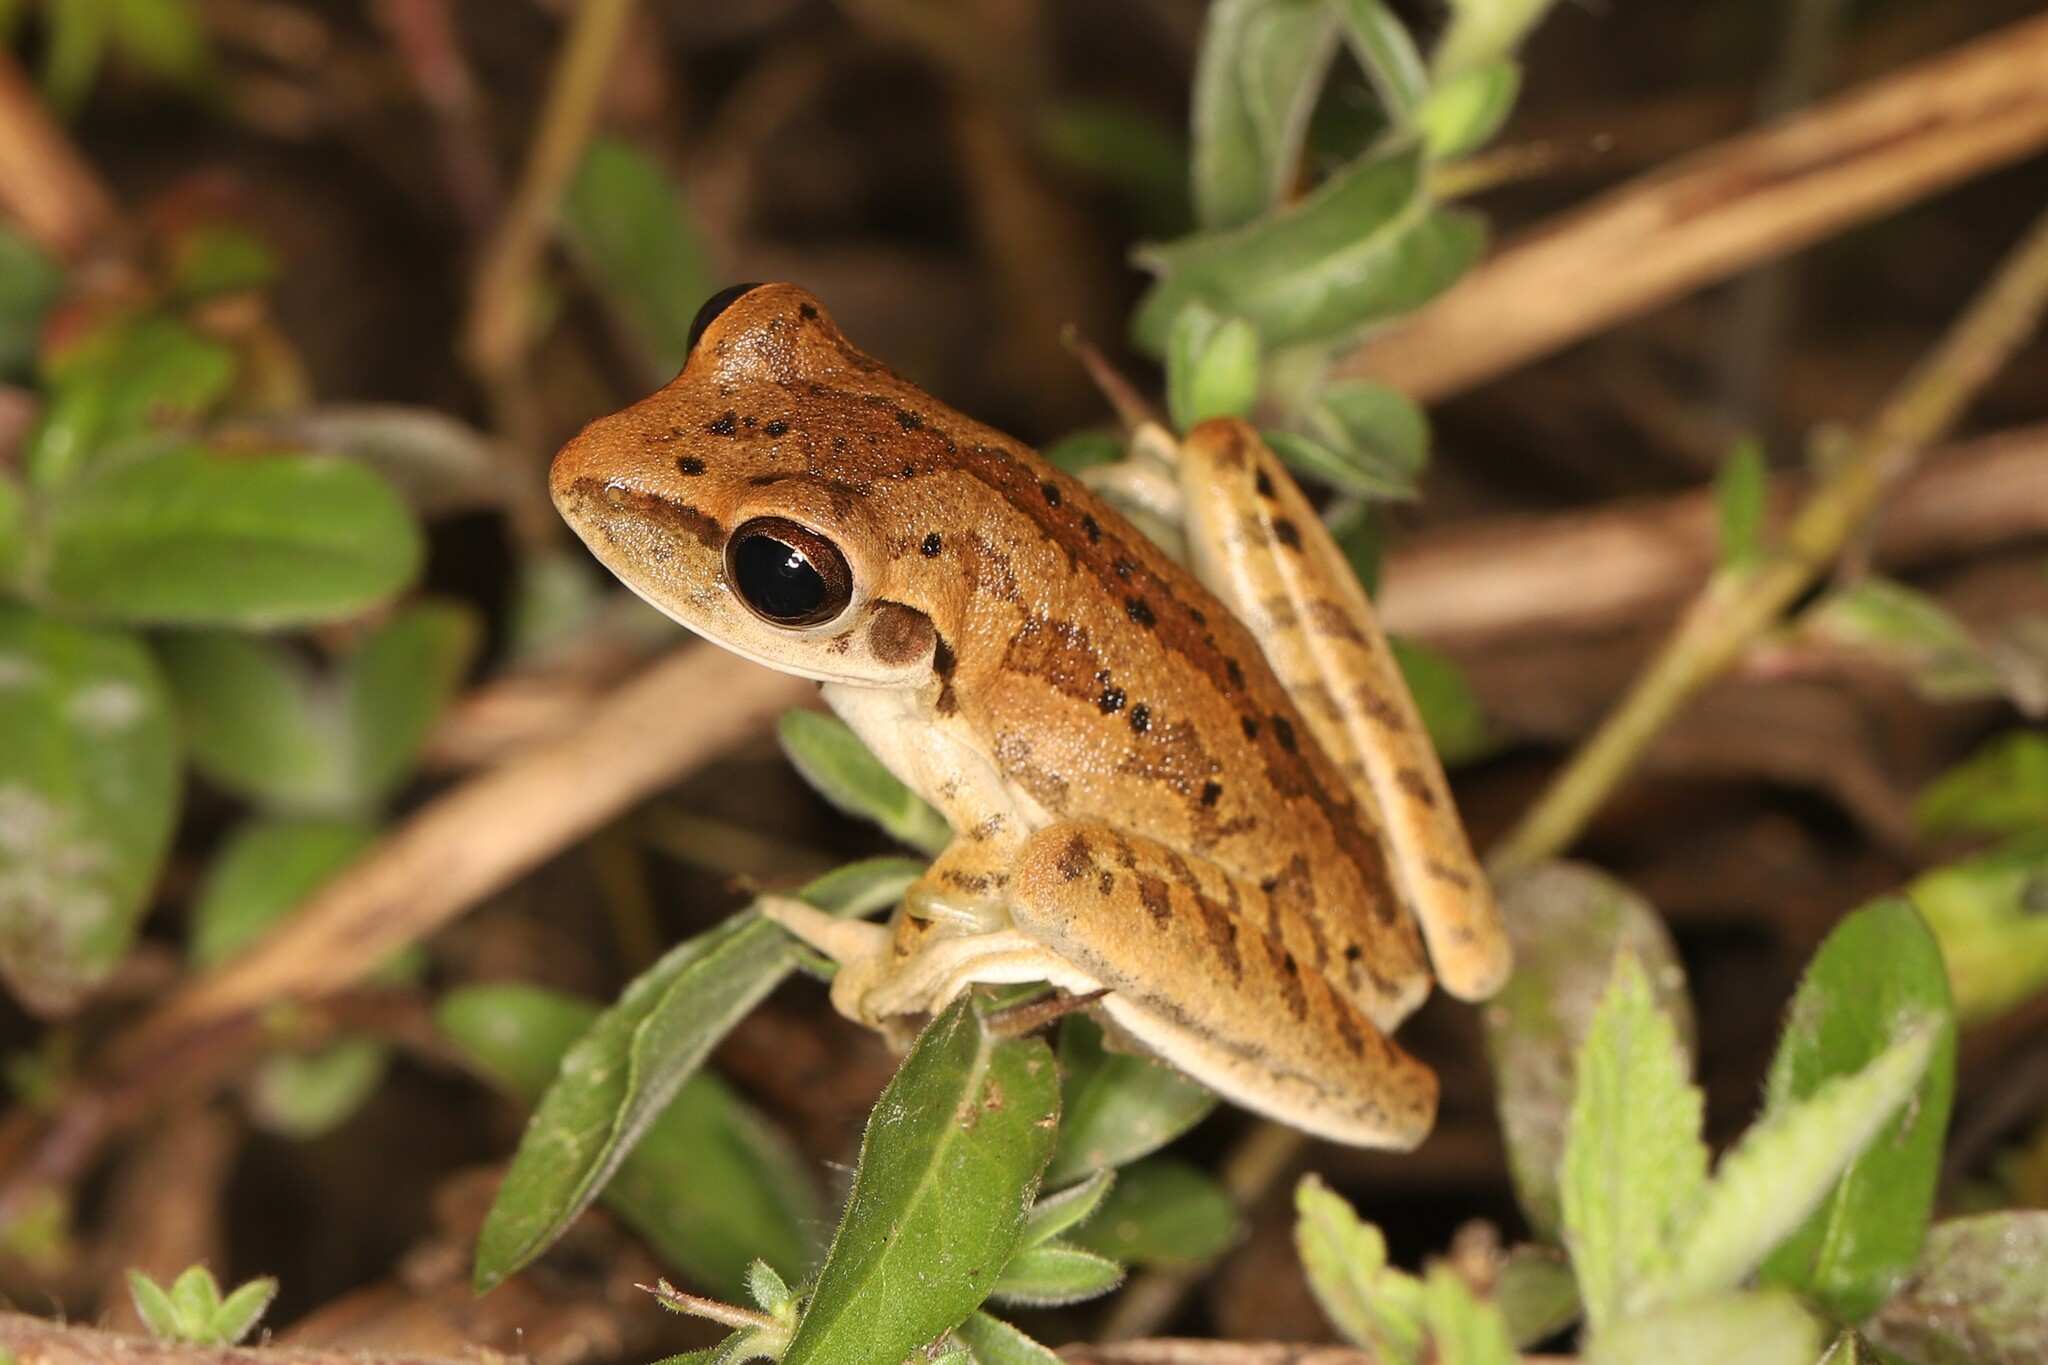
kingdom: Animalia
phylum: Chordata
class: Amphibia
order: Anura
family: Hylidae
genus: Boana
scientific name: Boana raniceps
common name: Chaco treefrog
